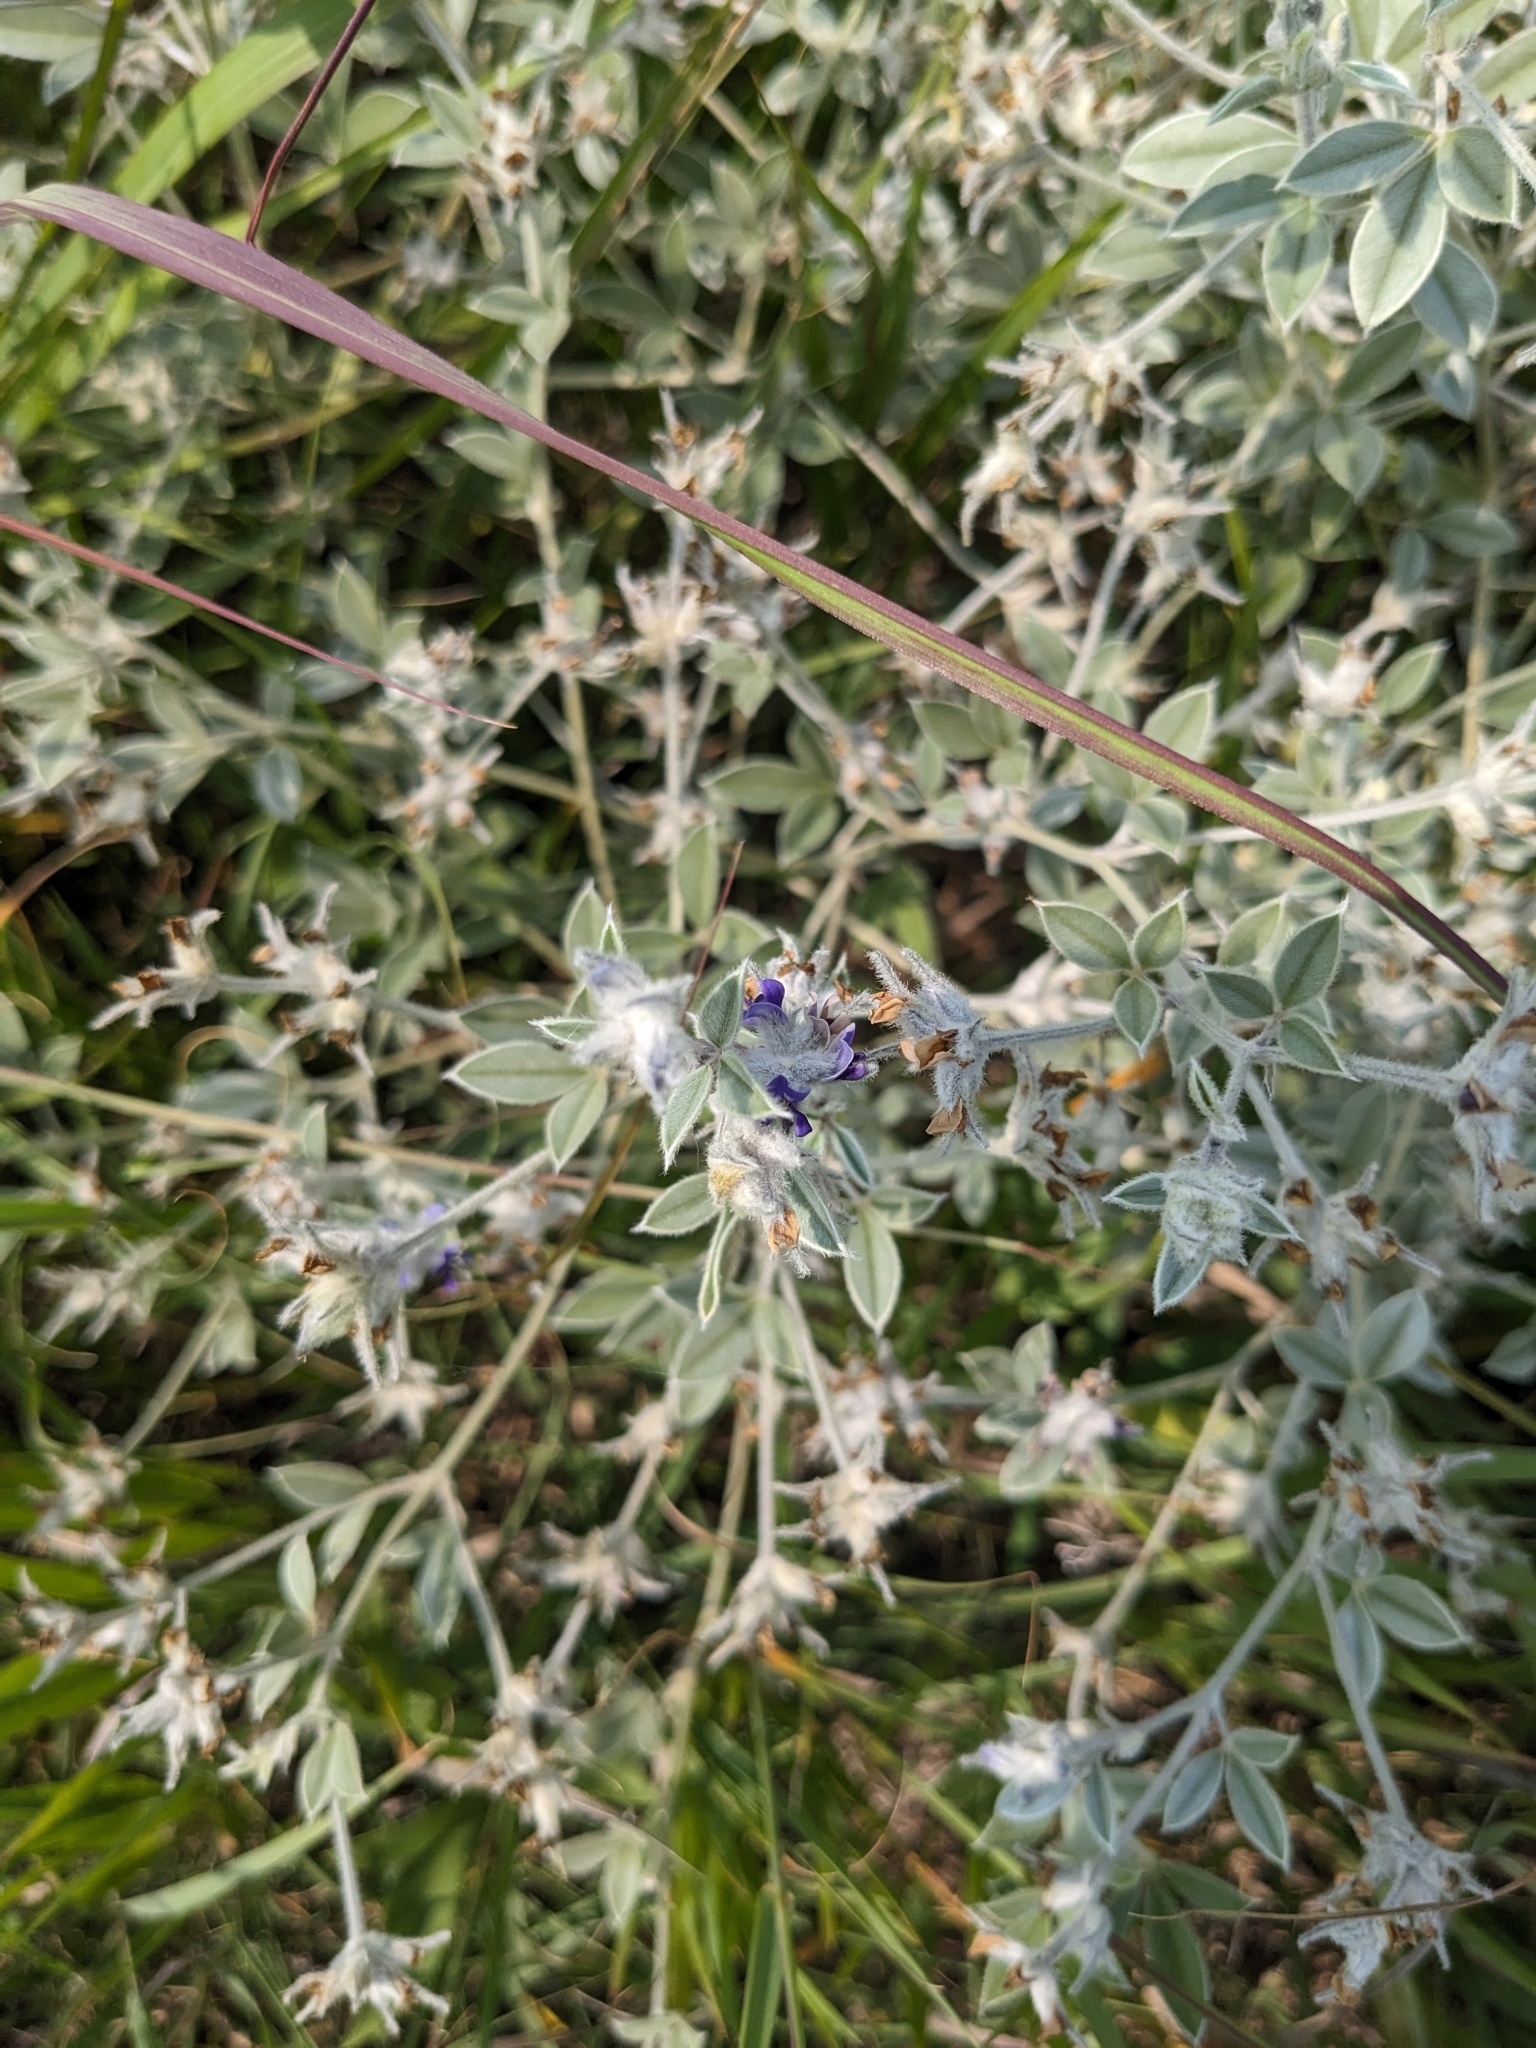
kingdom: Plantae
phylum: Tracheophyta
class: Magnoliopsida
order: Fabales
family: Fabaceae
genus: Pediomelum
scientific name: Pediomelum argophyllum
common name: Silver-leaved indian breadroot
